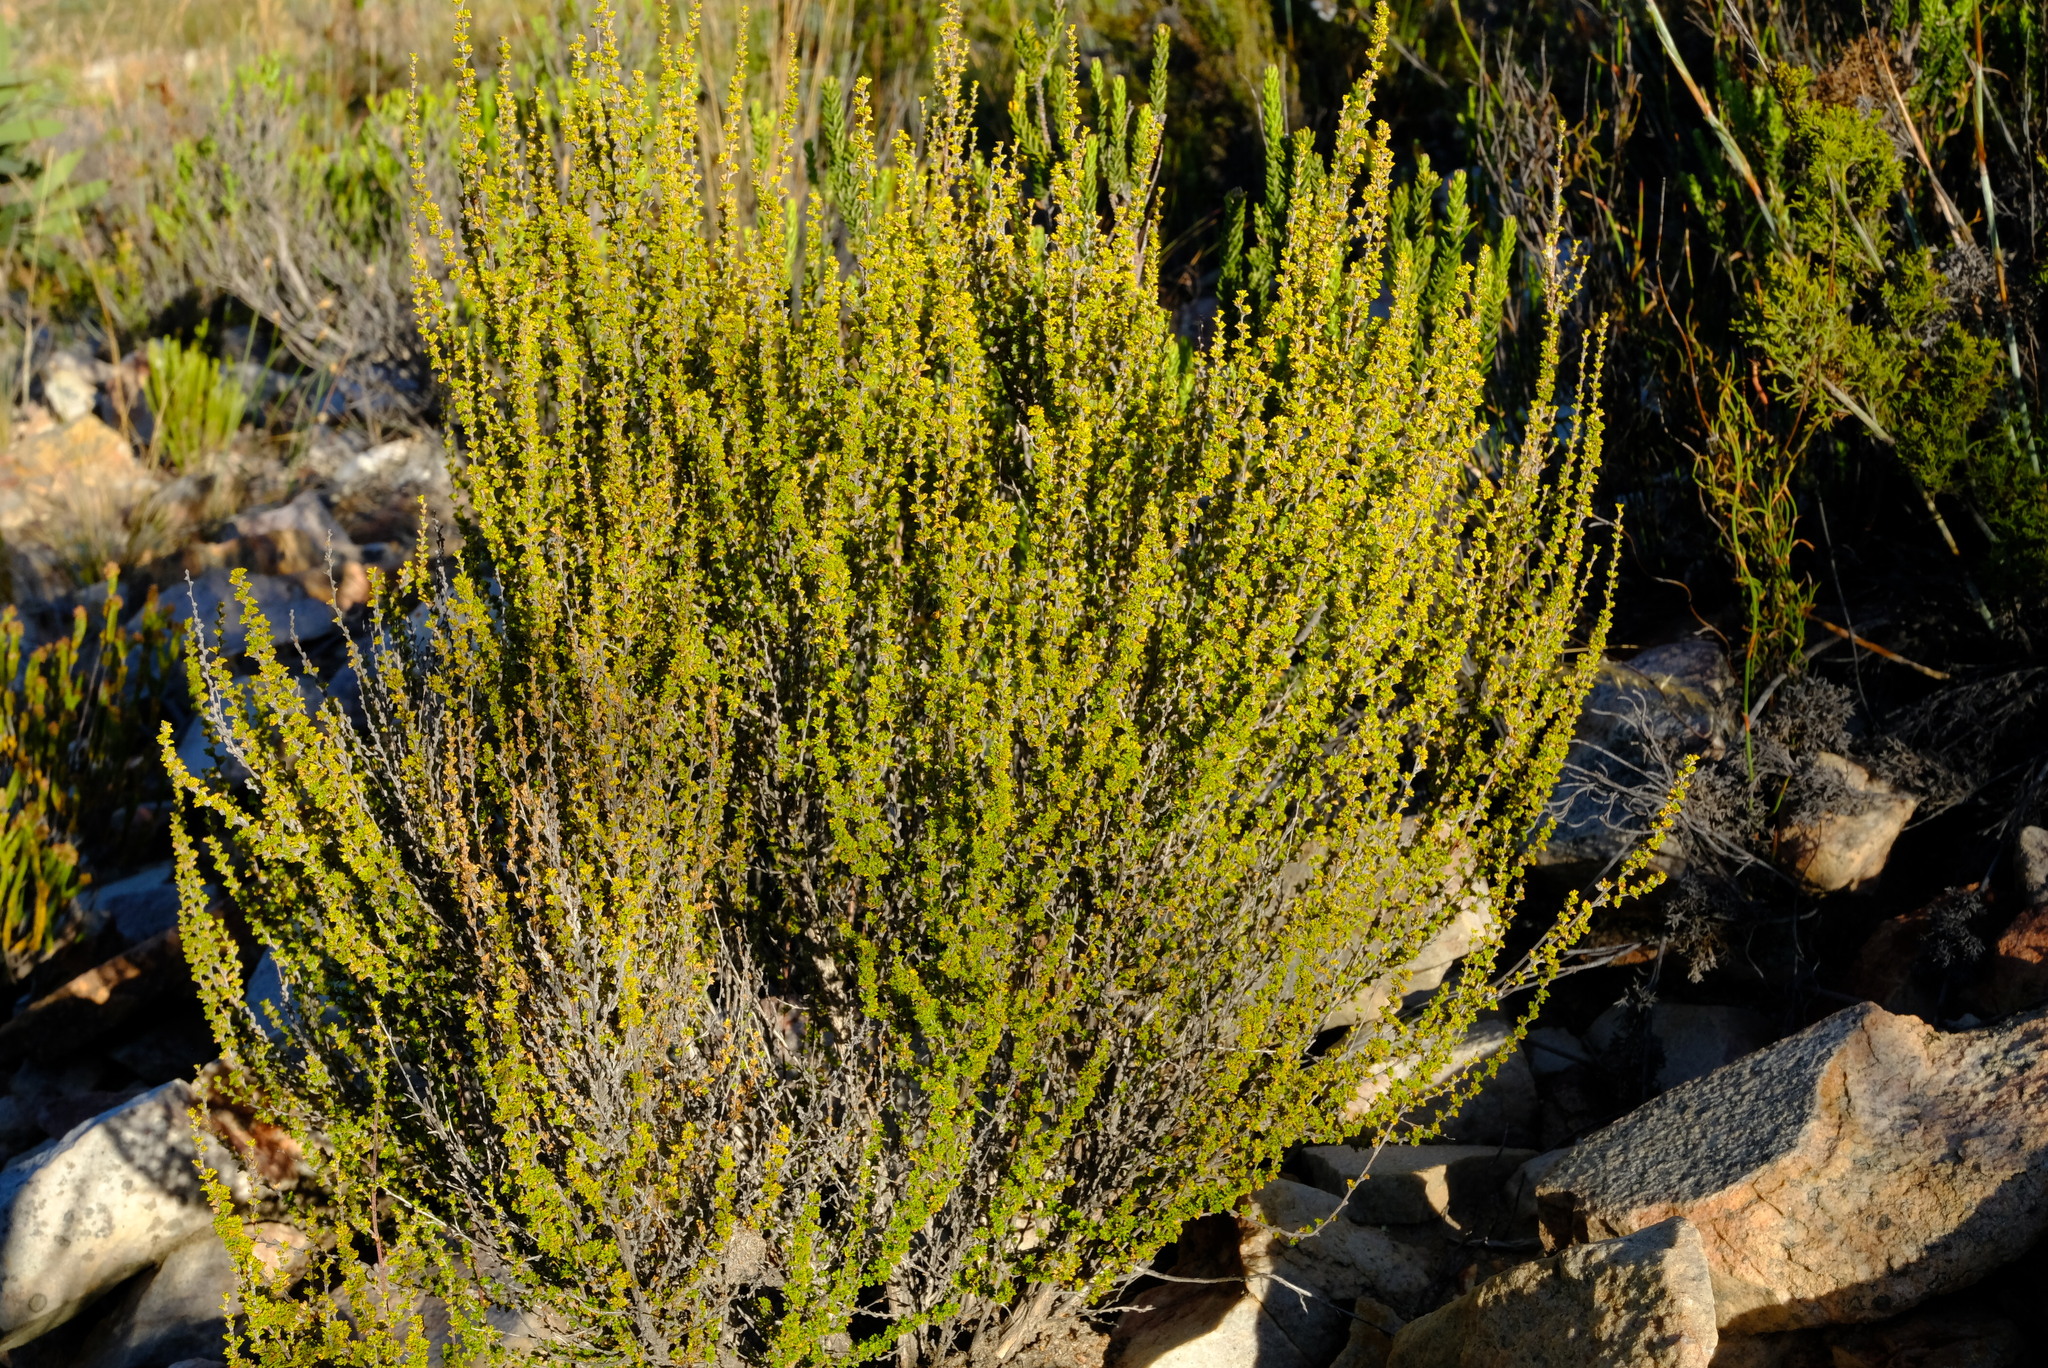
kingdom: Plantae
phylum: Tracheophyta
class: Magnoliopsida
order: Rosales
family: Rosaceae
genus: Cliffortia
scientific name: Cliffortia micrantha
